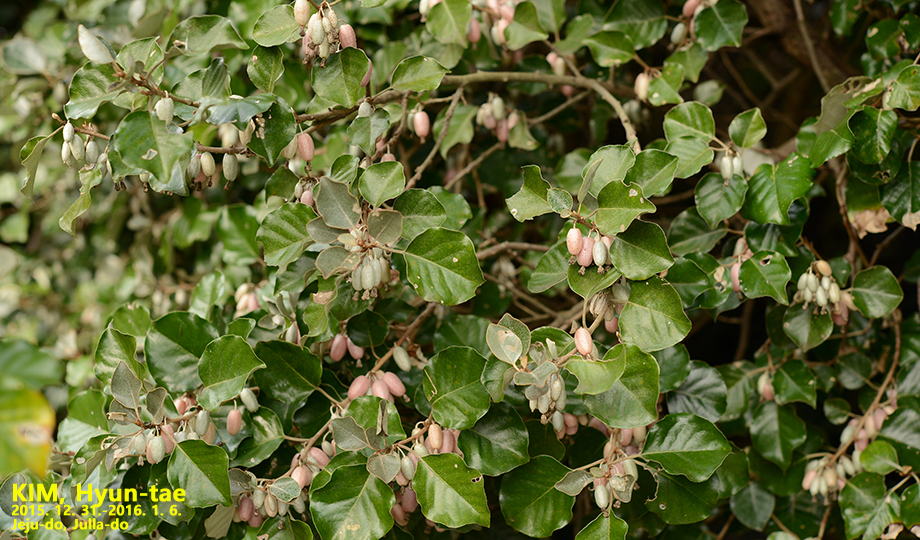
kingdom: Plantae
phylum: Tracheophyta
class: Magnoliopsida
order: Rosales
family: Elaeagnaceae
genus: Elaeagnus
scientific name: Elaeagnus macrophylla
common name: Broad-leaved oleaster
